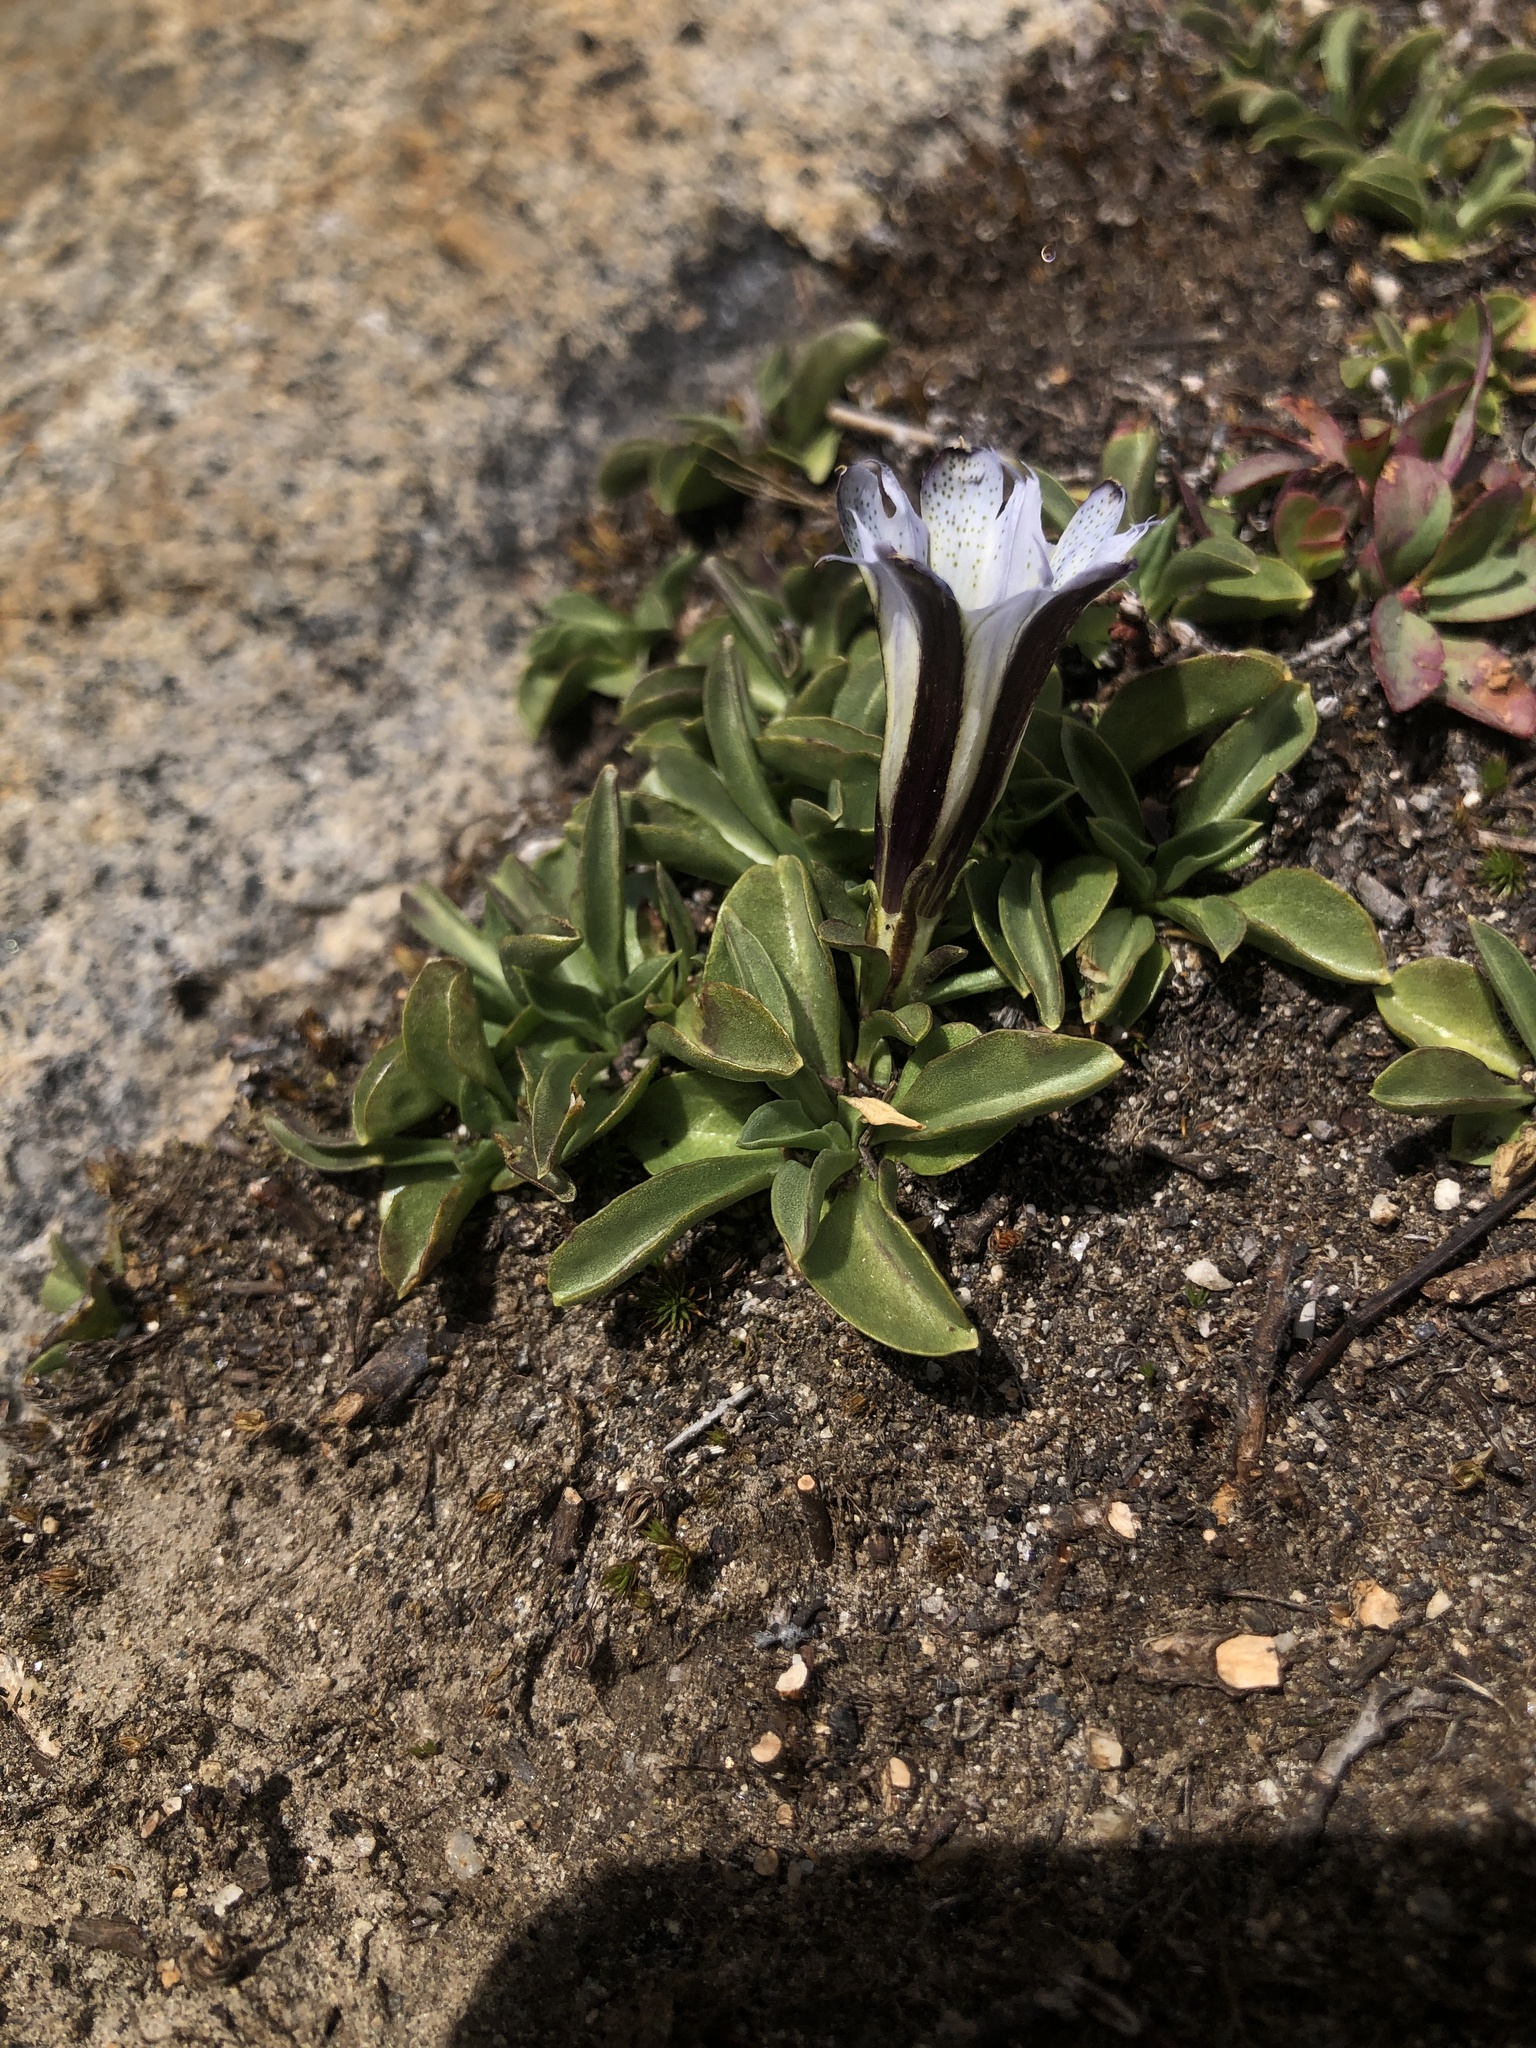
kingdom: Plantae
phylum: Tracheophyta
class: Magnoliopsida
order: Gentianales
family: Gentianaceae
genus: Gentiana
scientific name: Gentiana newberryi
